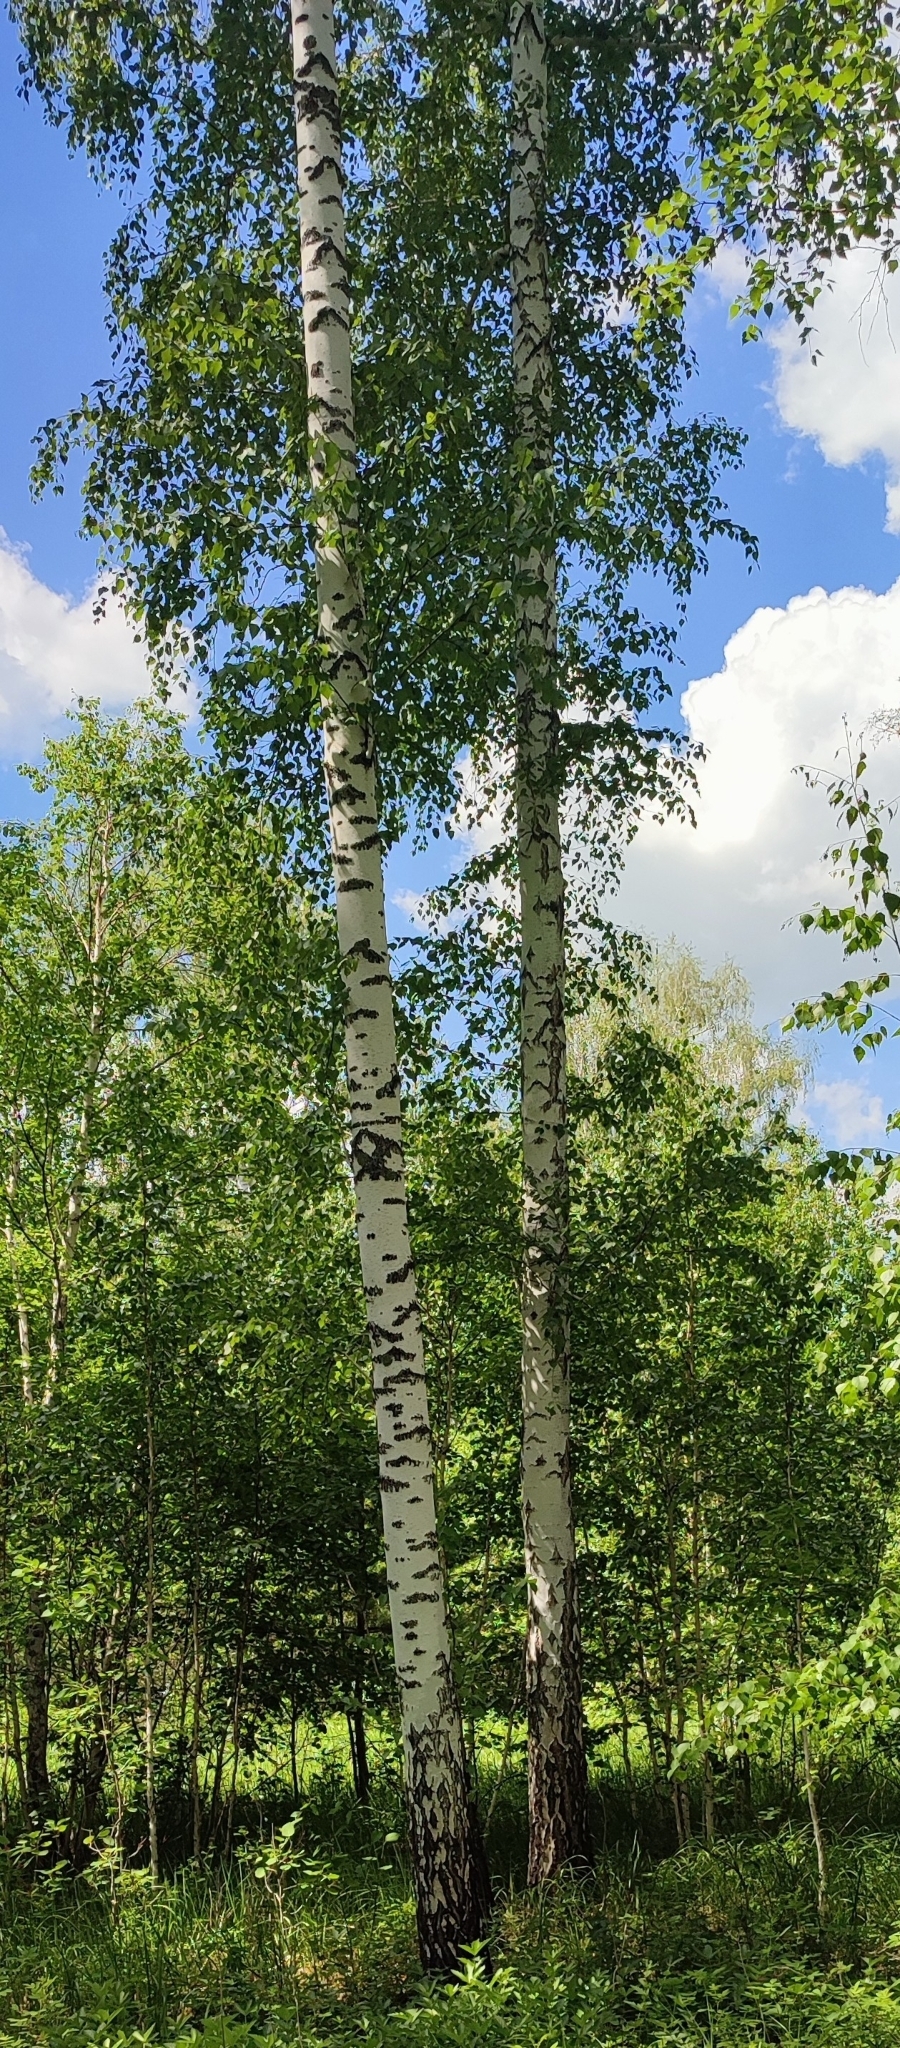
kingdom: Plantae
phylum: Tracheophyta
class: Magnoliopsida
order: Fagales
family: Betulaceae
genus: Betula
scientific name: Betula pendula
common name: Silver birch
